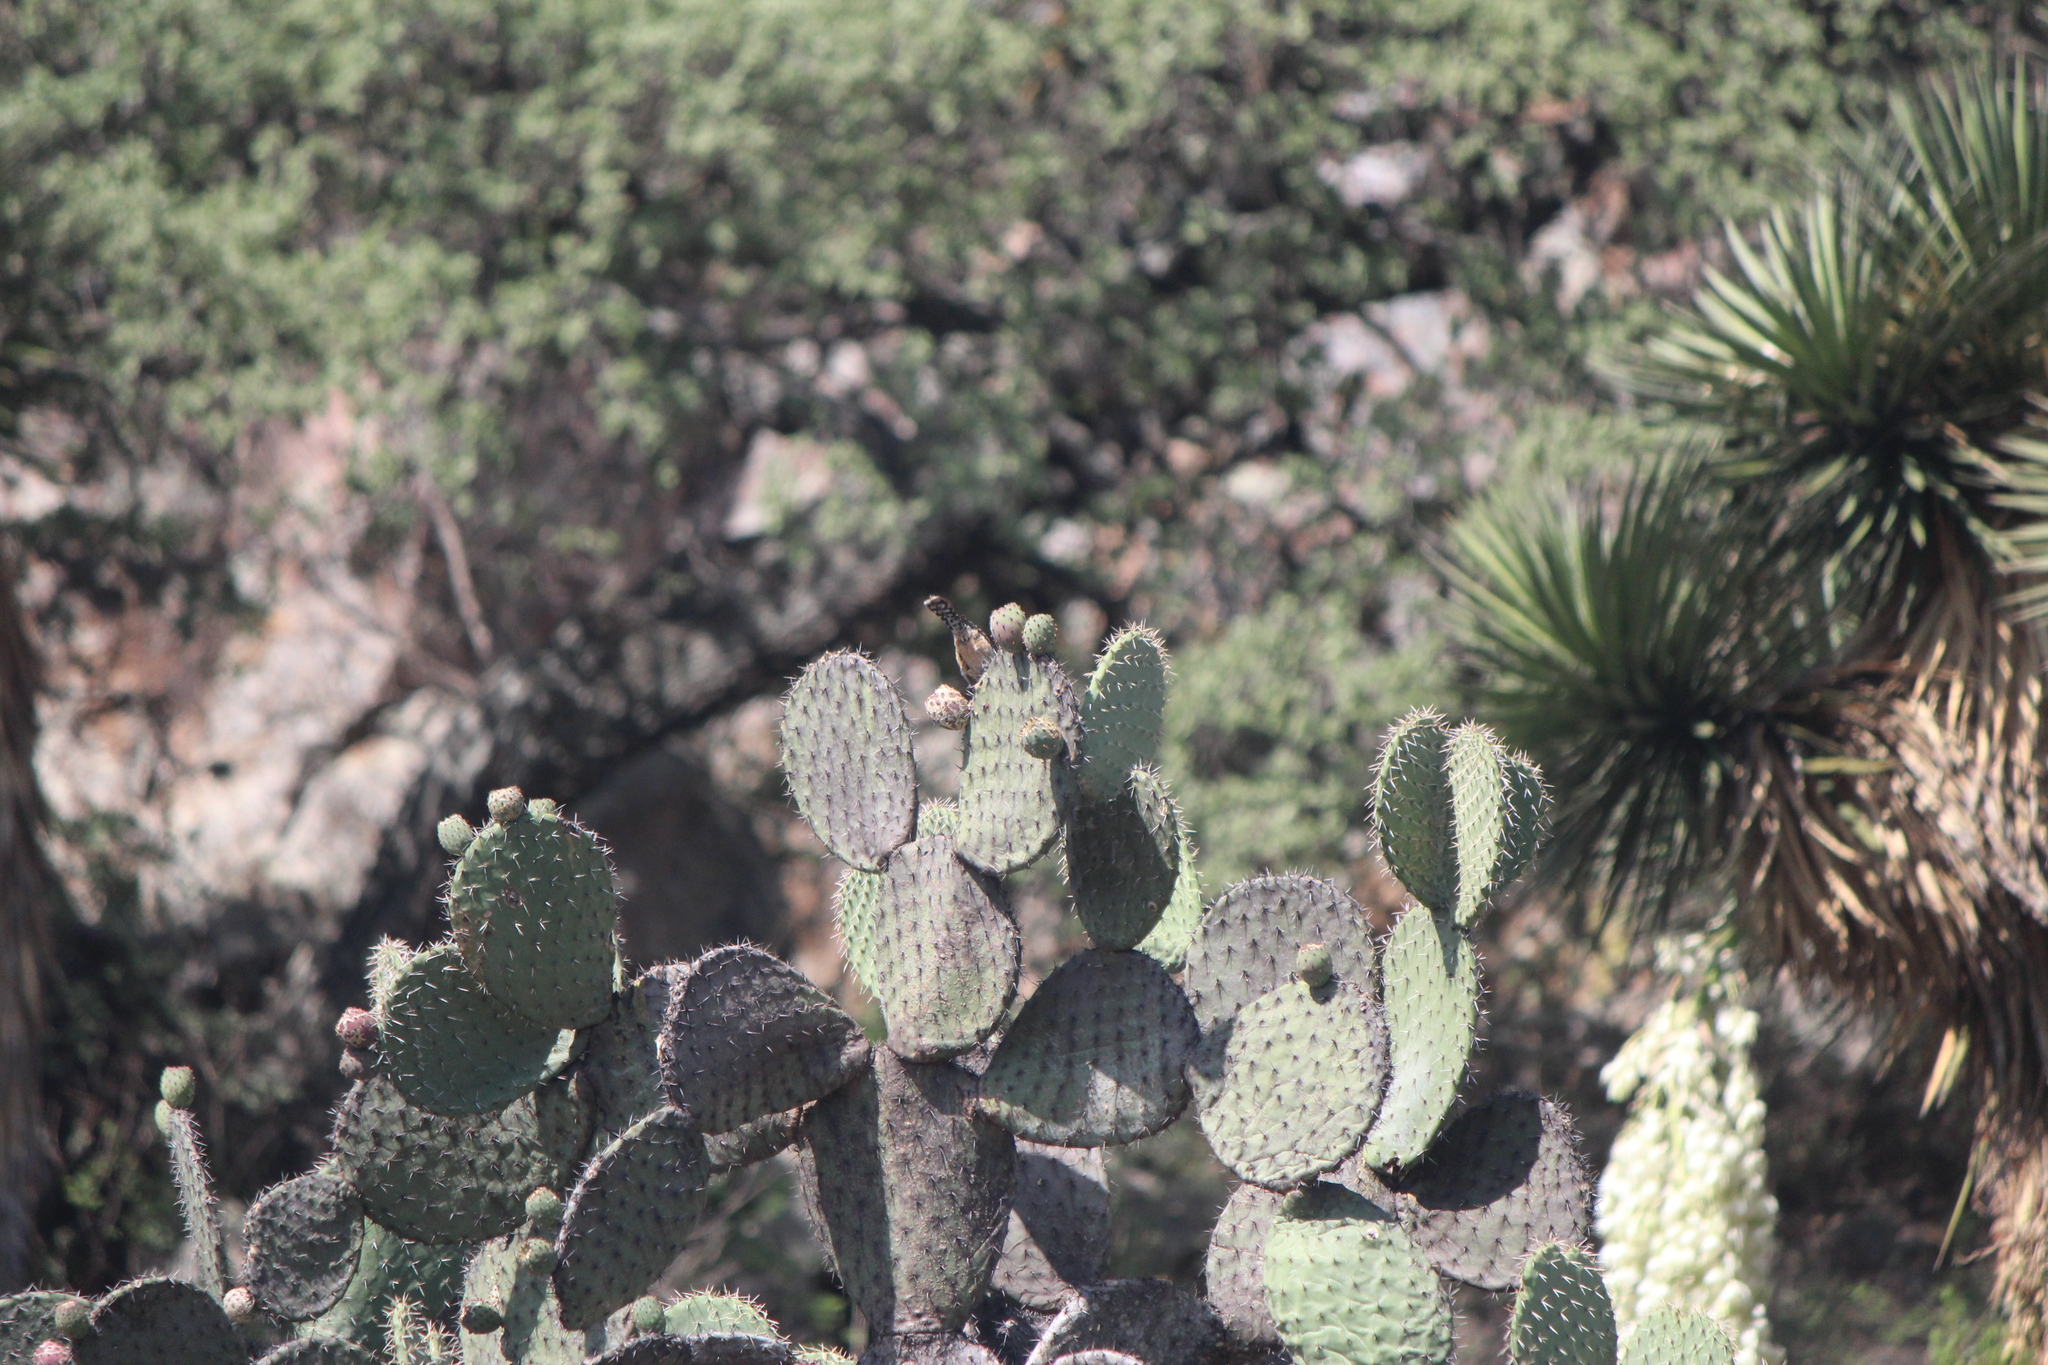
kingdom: Animalia
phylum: Chordata
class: Aves
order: Passeriformes
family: Troglodytidae
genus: Campylorhynchus
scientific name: Campylorhynchus brunneicapillus
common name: Cactus wren
